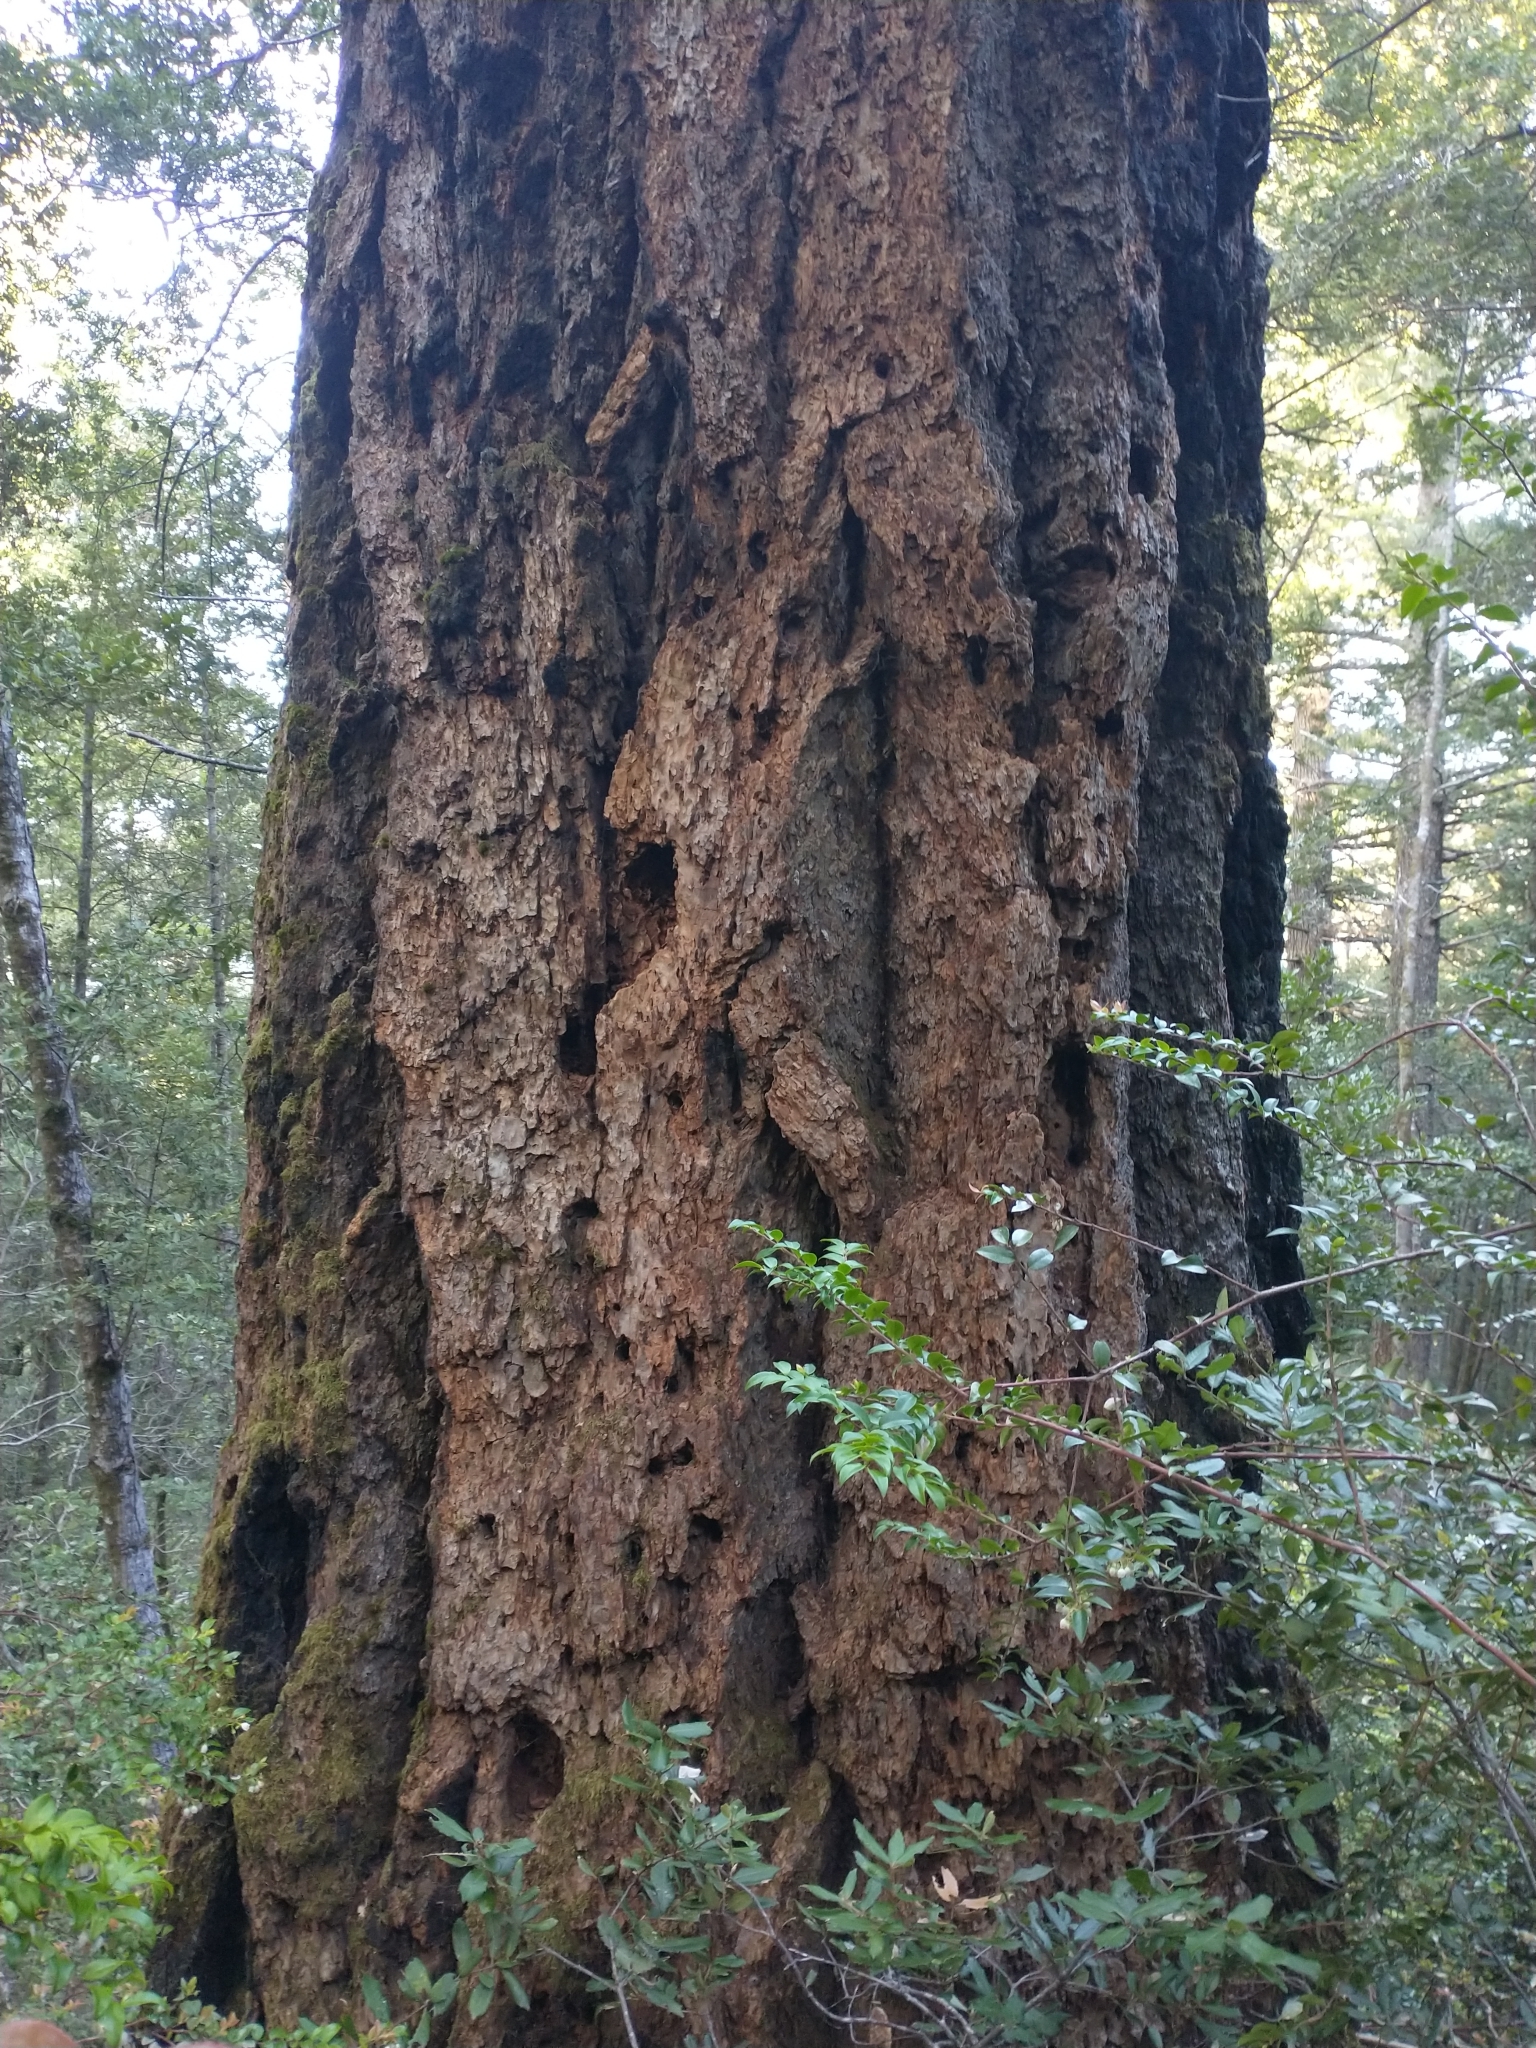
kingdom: Plantae
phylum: Tracheophyta
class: Pinopsida
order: Pinales
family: Pinaceae
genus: Pseudotsuga
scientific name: Pseudotsuga menziesii
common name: Douglas fir
